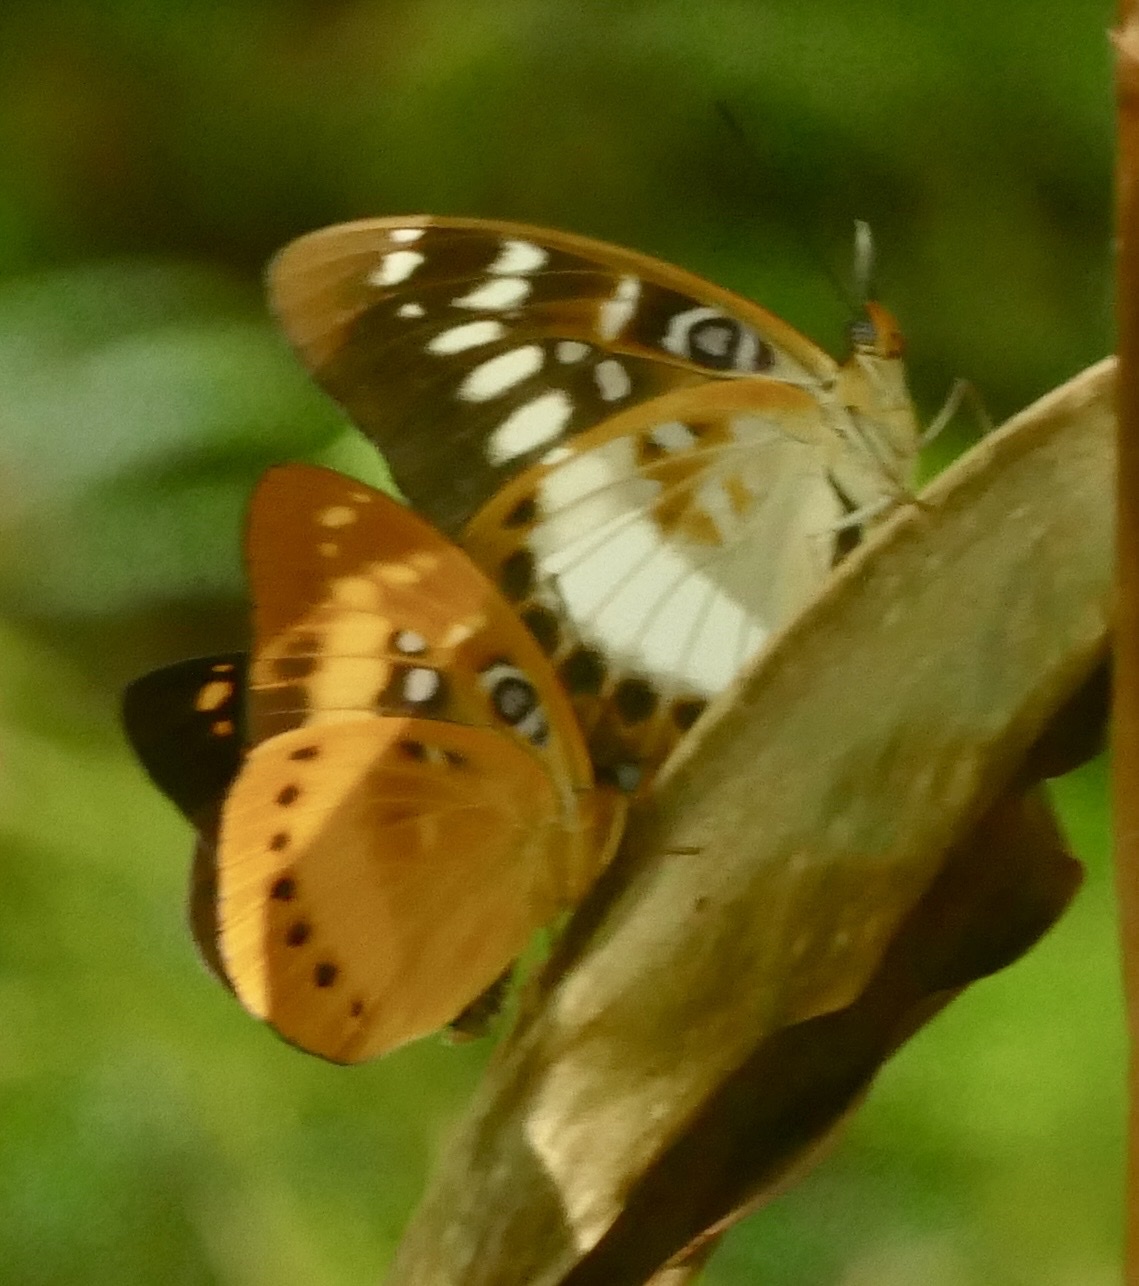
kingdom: Animalia
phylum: Arthropoda
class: Insecta
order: Lepidoptera
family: Nymphalidae
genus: Lexias
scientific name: Lexias aeropa
